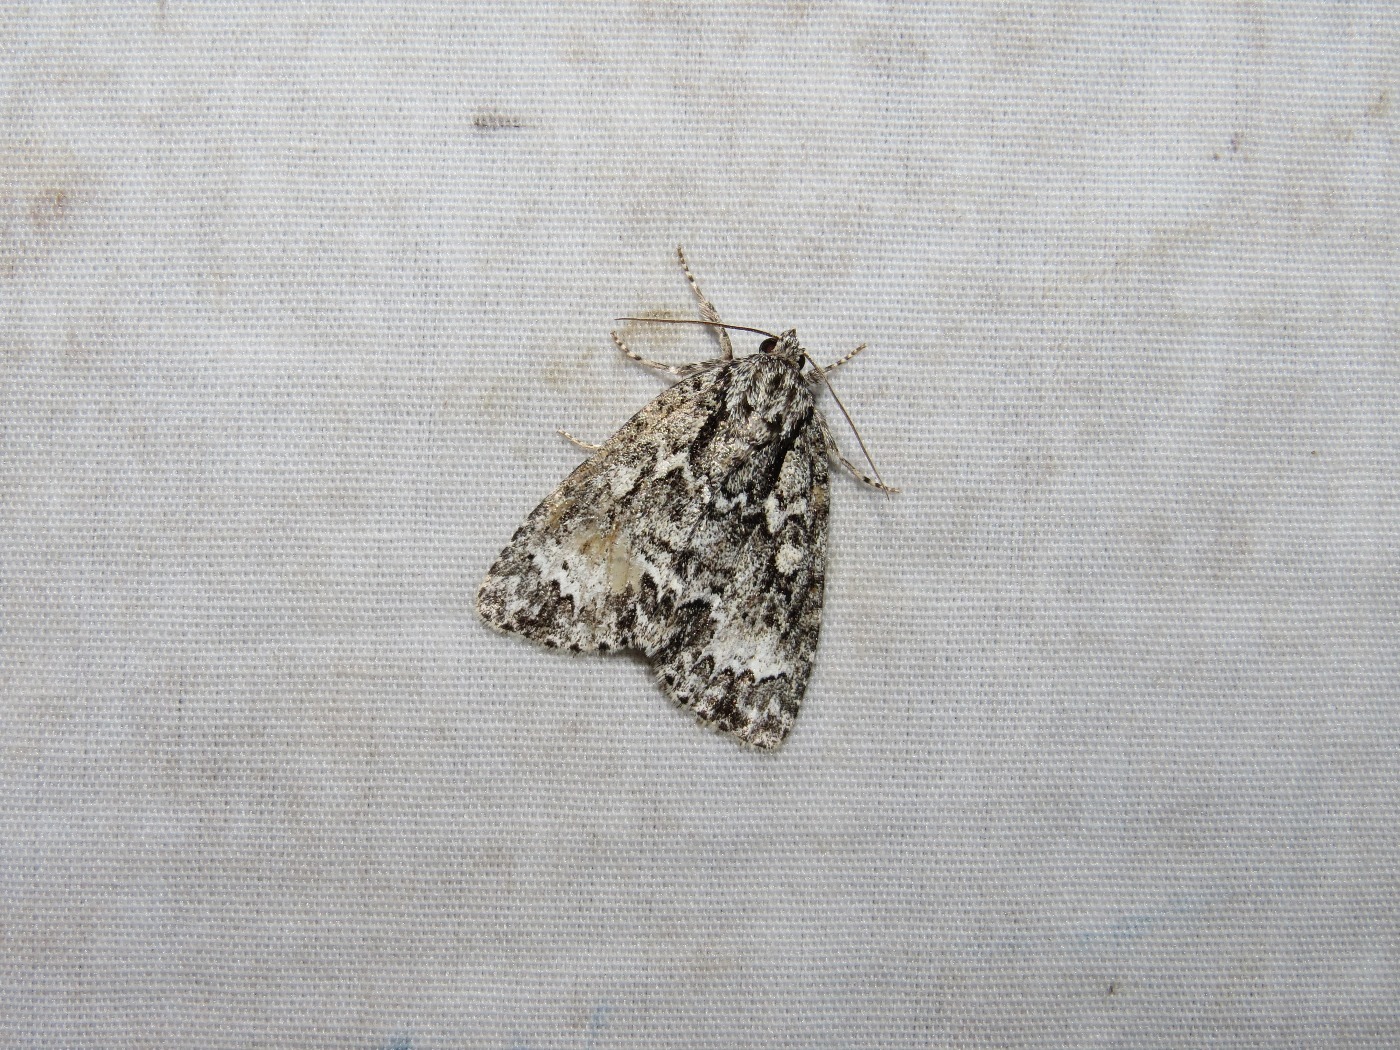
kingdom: Animalia
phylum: Arthropoda
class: Insecta
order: Lepidoptera
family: Noctuidae
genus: Acronicta
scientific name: Acronicta fragilis
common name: Fragile dagger
